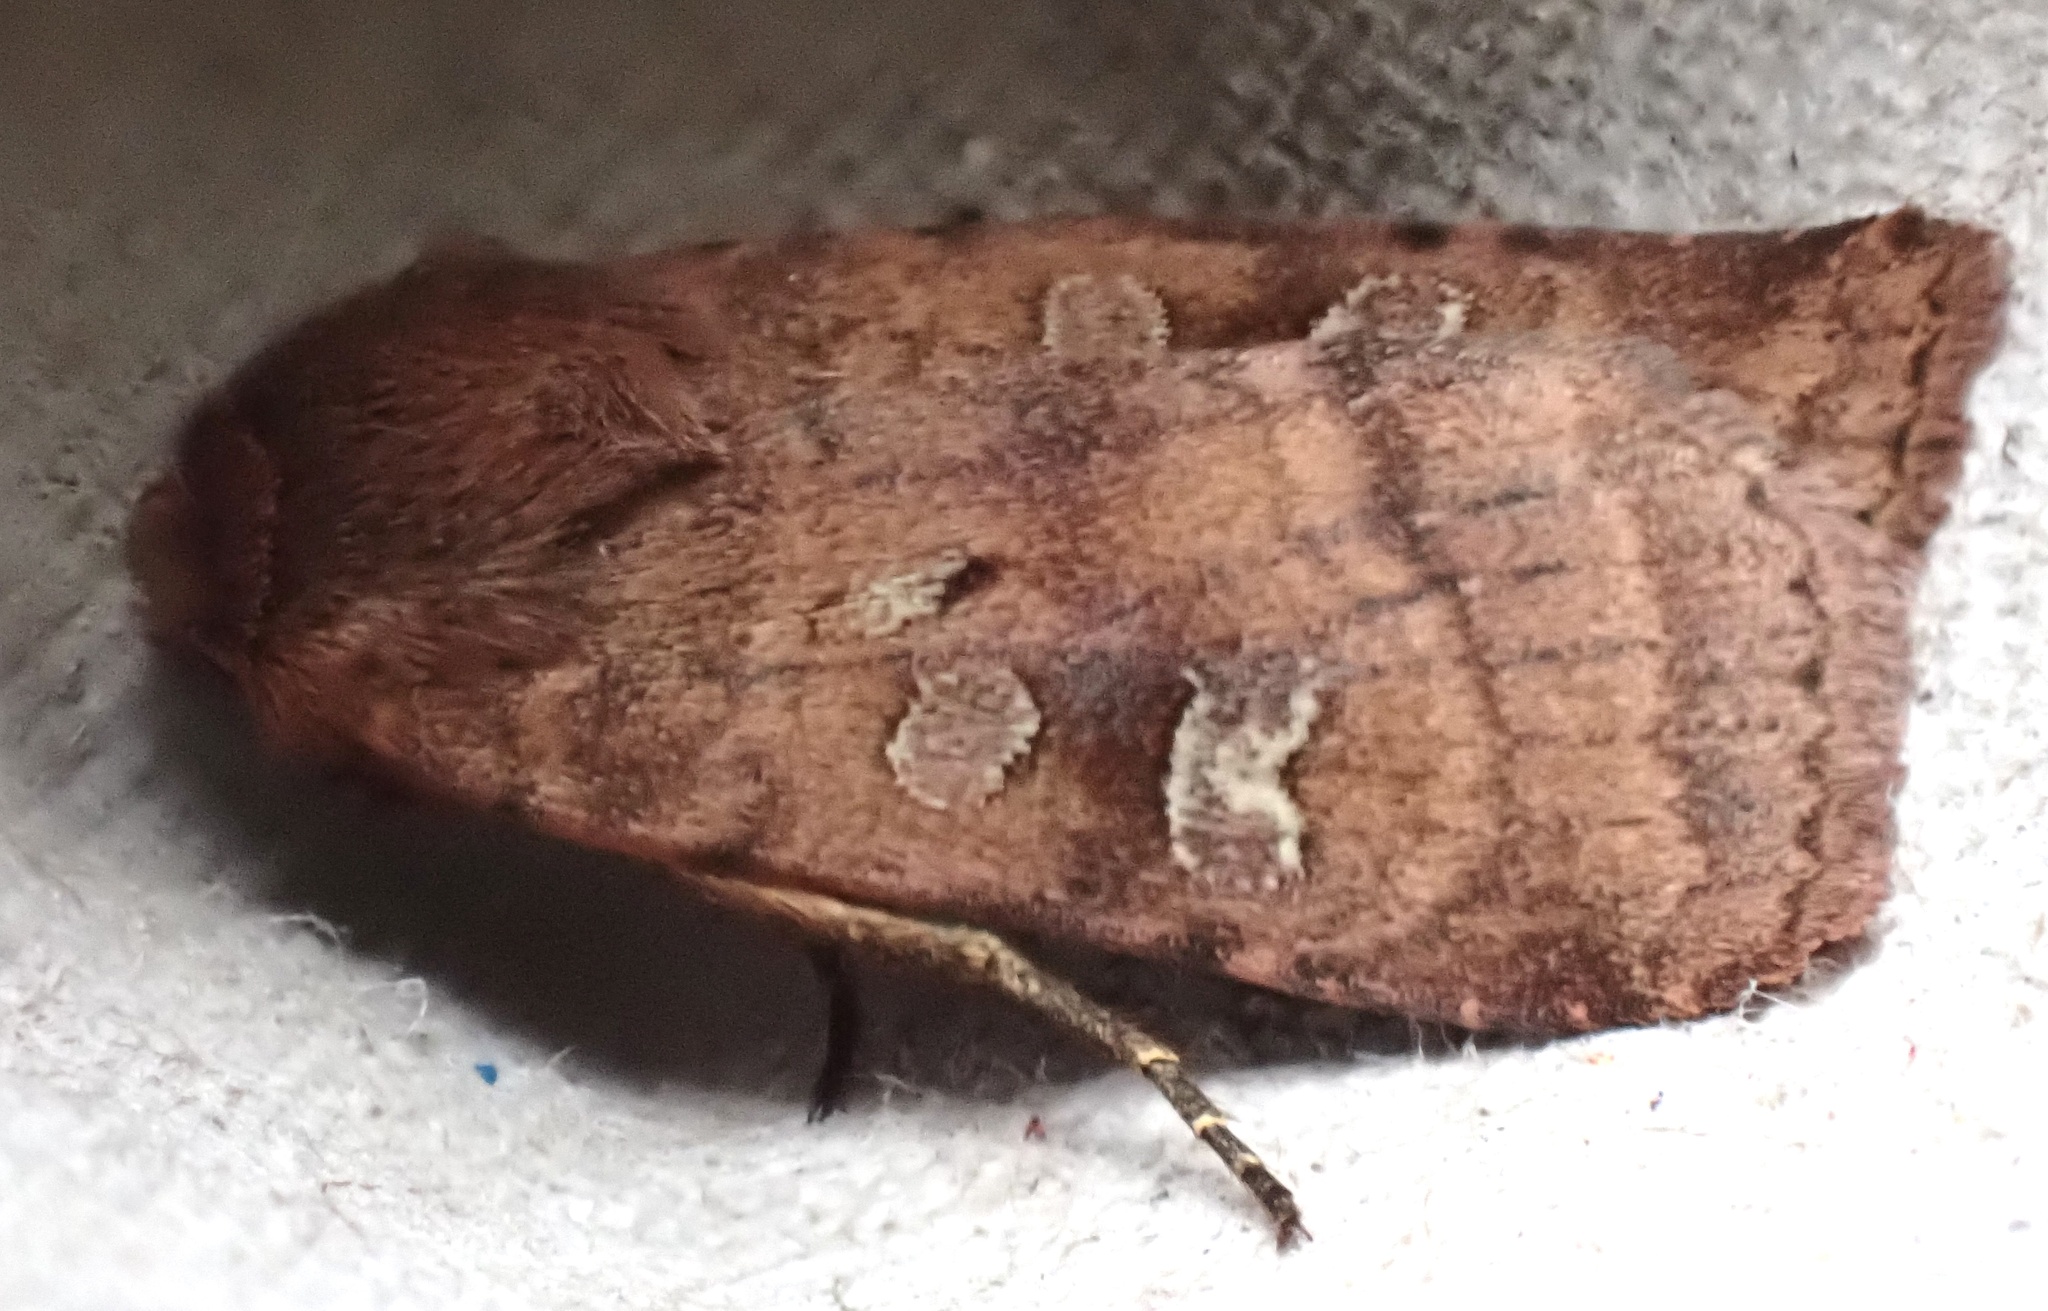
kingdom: Animalia
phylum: Arthropoda
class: Insecta
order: Lepidoptera
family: Noctuidae
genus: Diarsia
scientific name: Diarsia rubi
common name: Small square-spot
